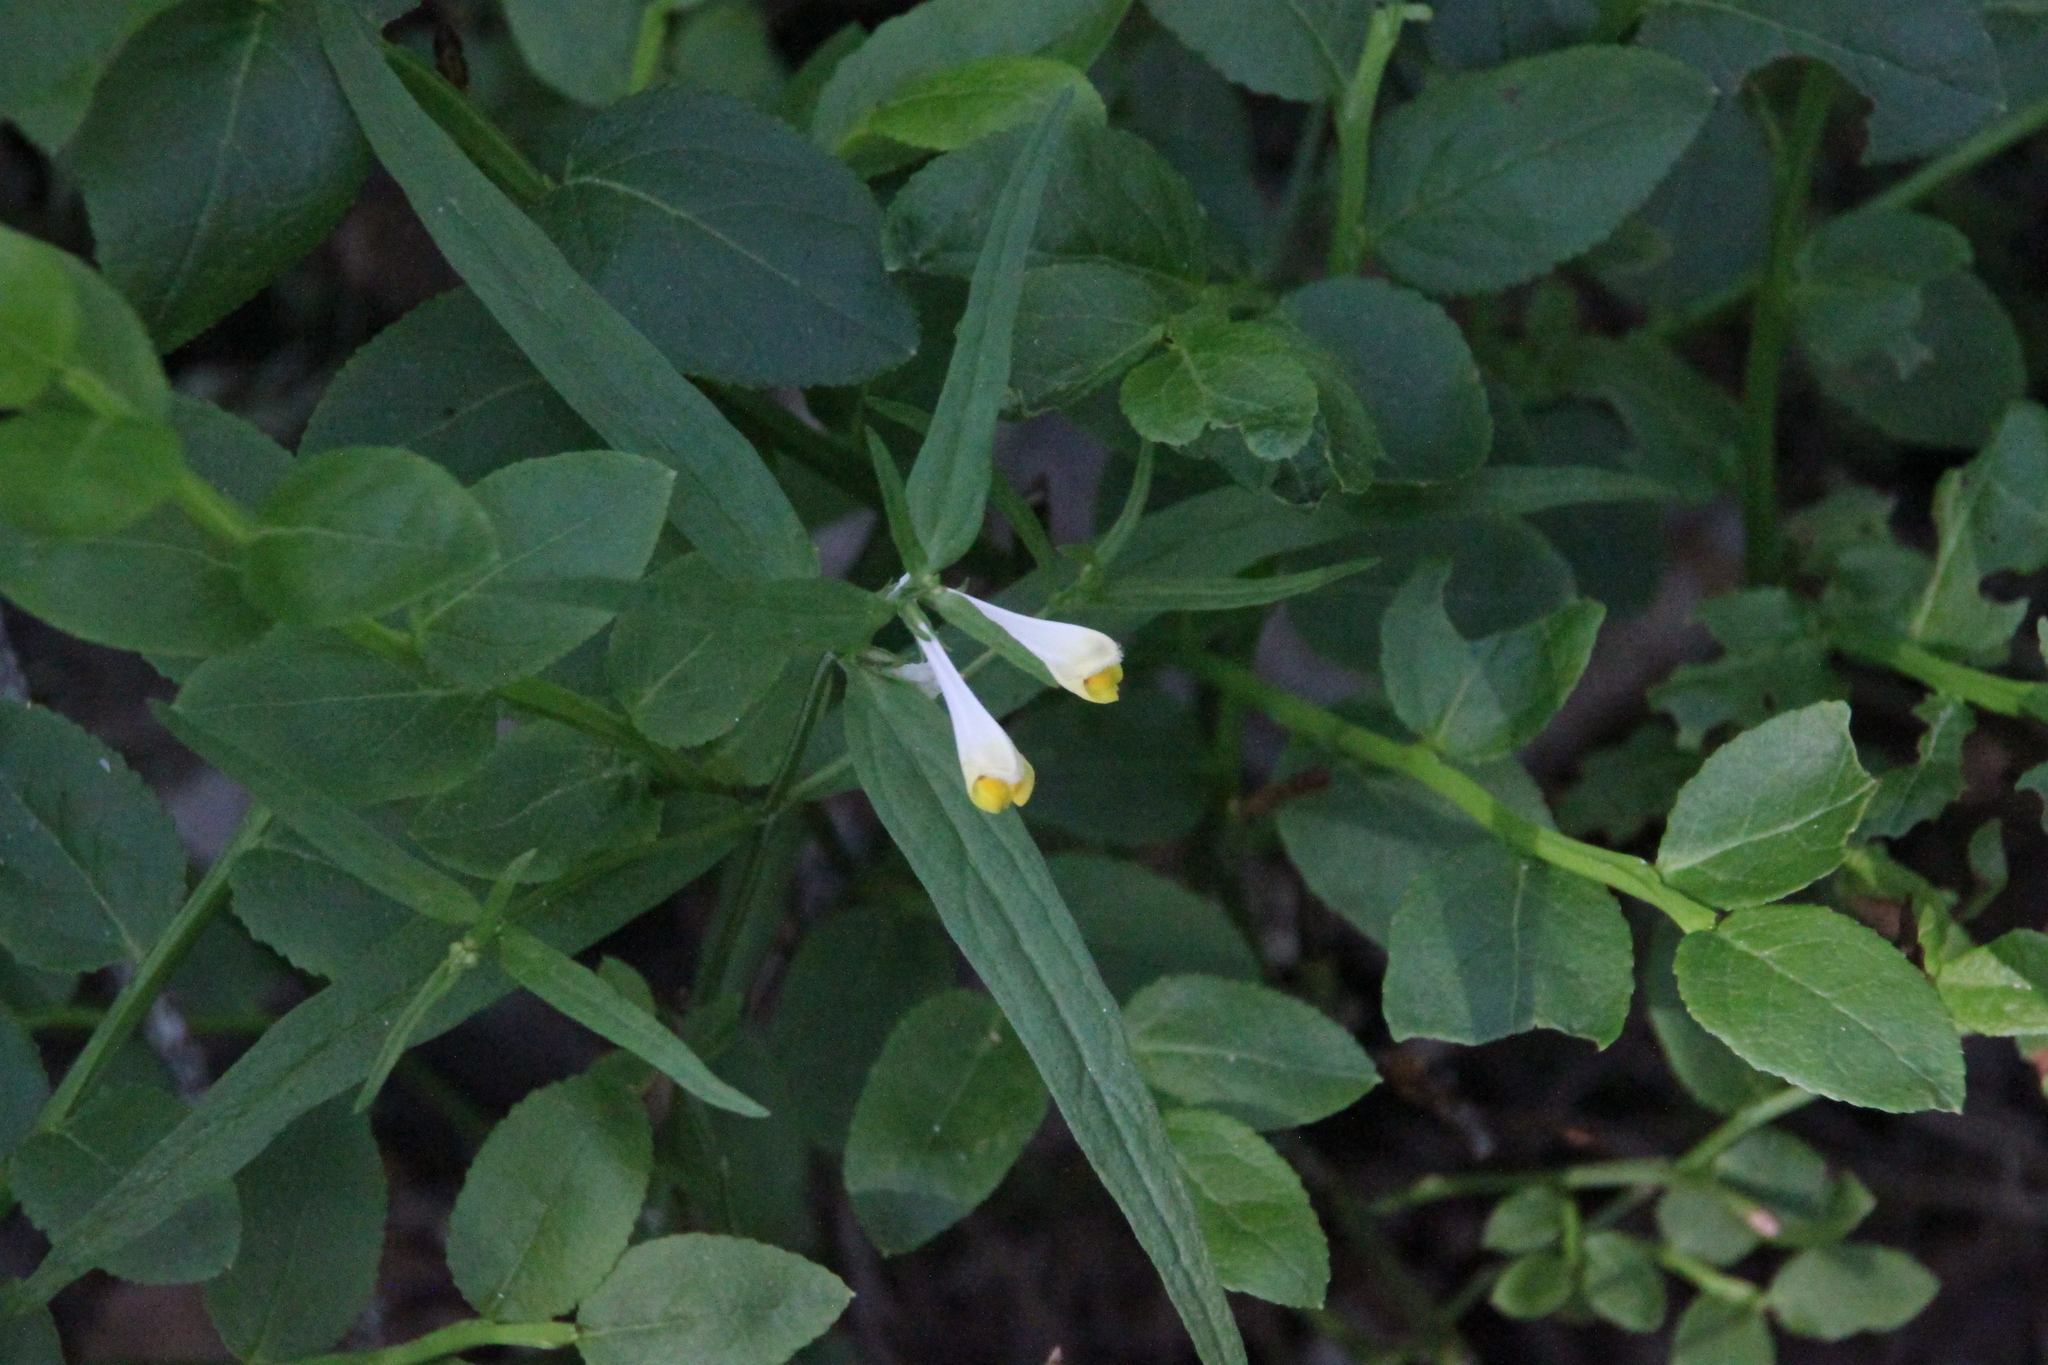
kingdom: Plantae
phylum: Tracheophyta
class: Magnoliopsida
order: Lamiales
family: Orobanchaceae
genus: Melampyrum
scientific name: Melampyrum pratense
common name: Common cow-wheat
